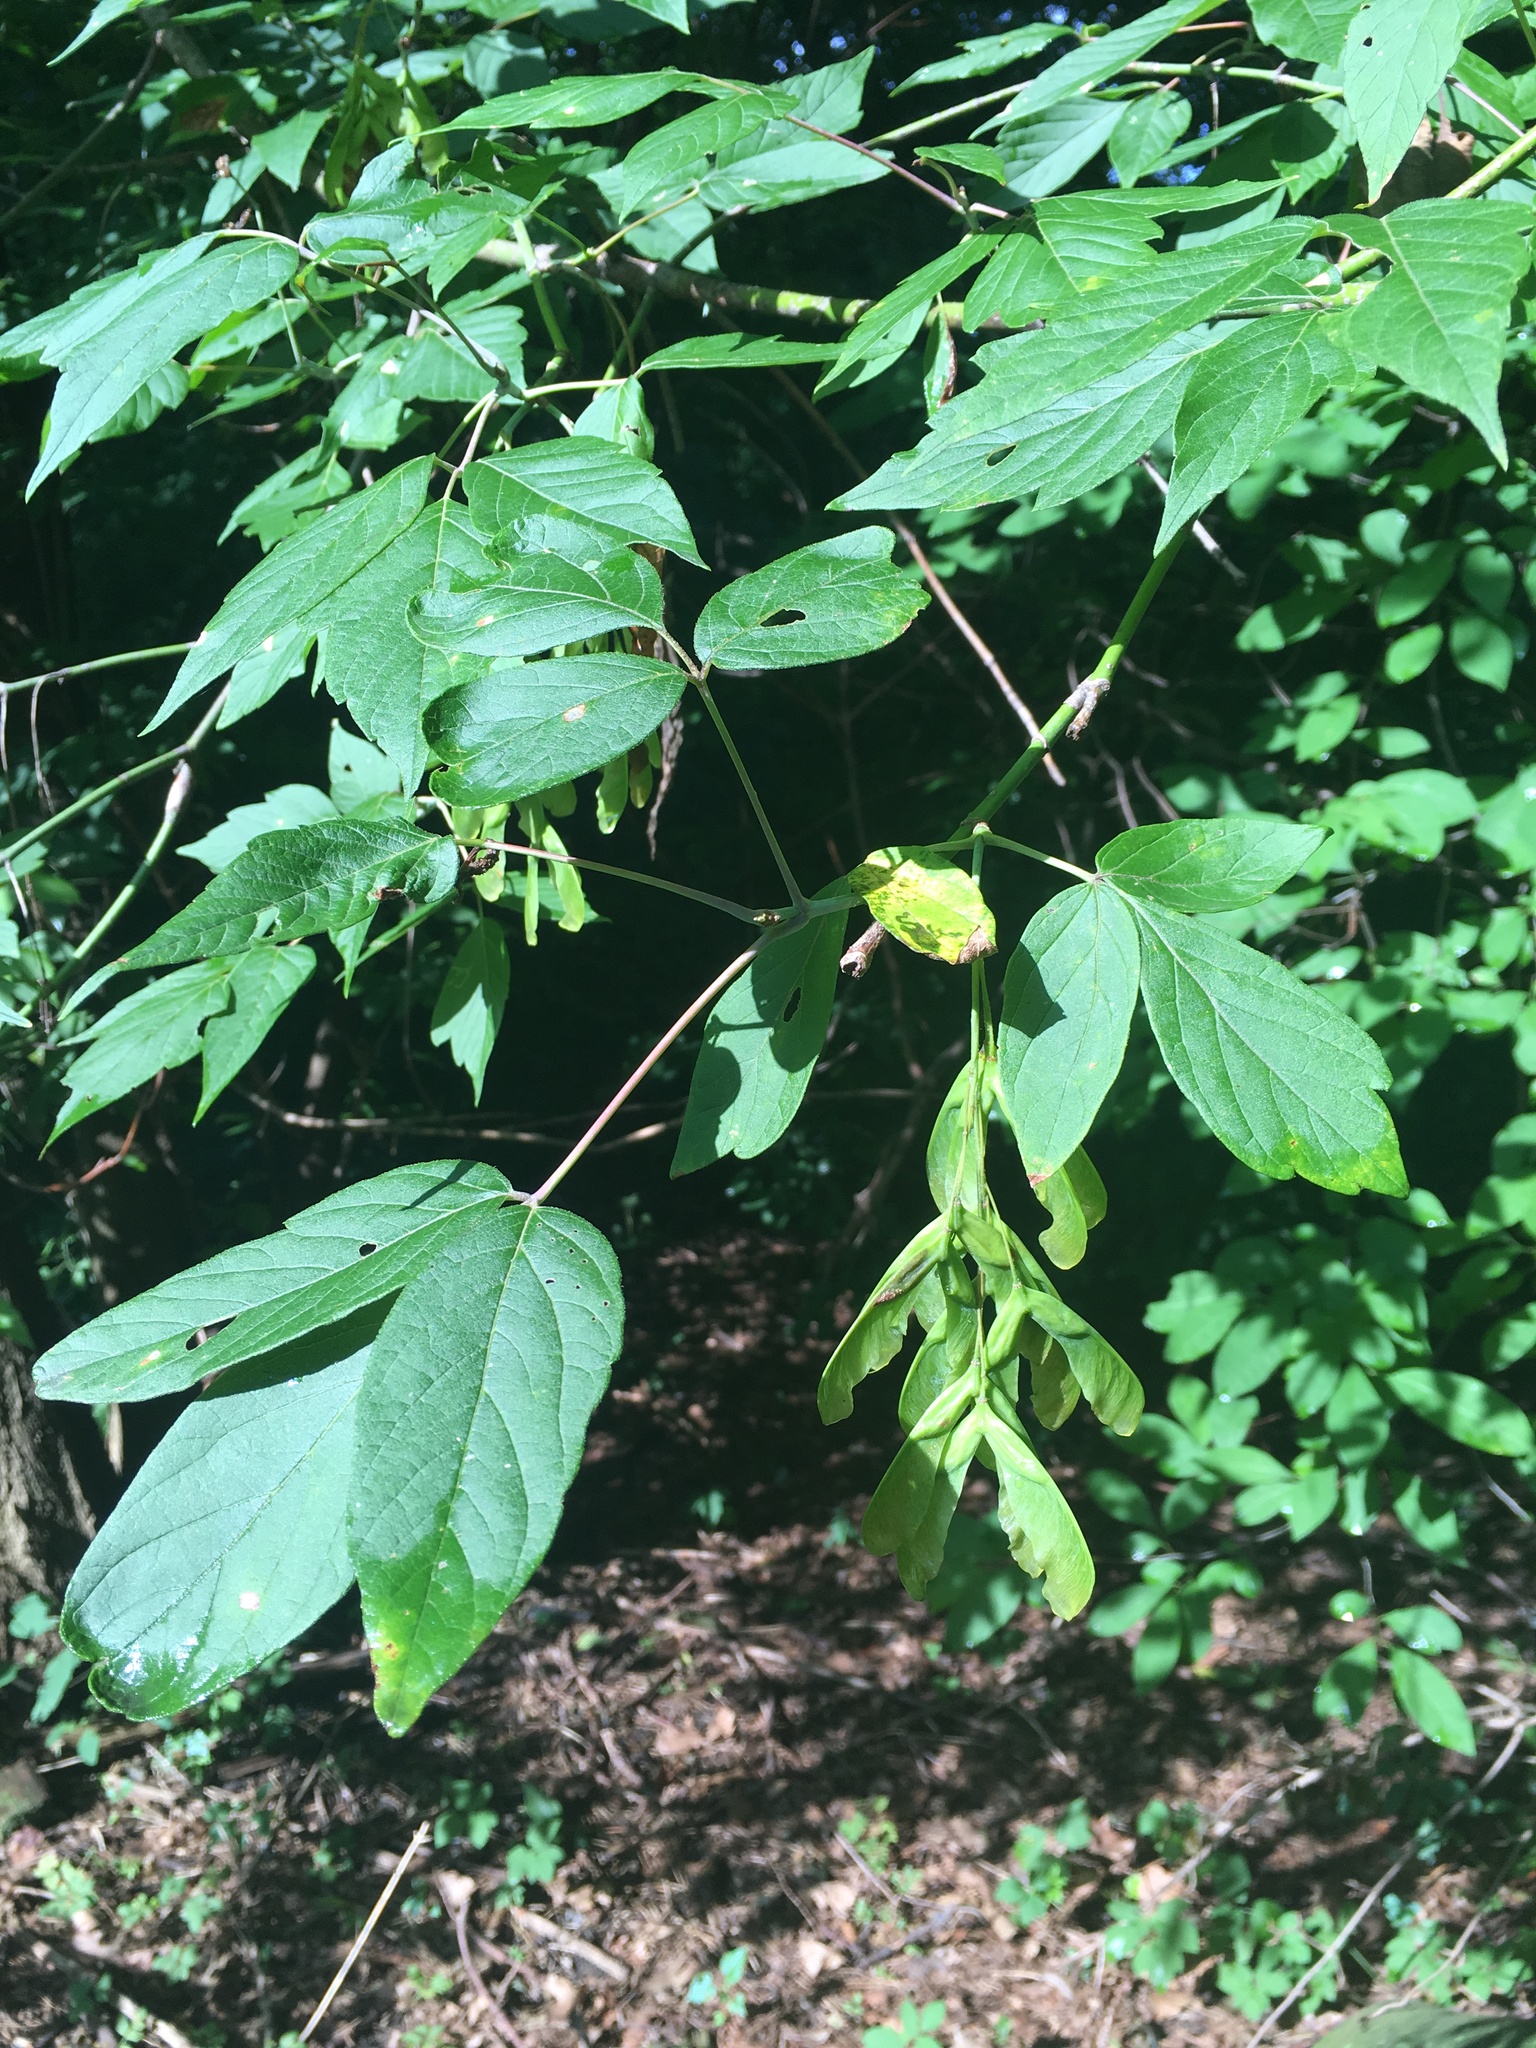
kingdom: Plantae
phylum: Tracheophyta
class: Magnoliopsida
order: Sapindales
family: Sapindaceae
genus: Acer
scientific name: Acer negundo
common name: Ashleaf maple
